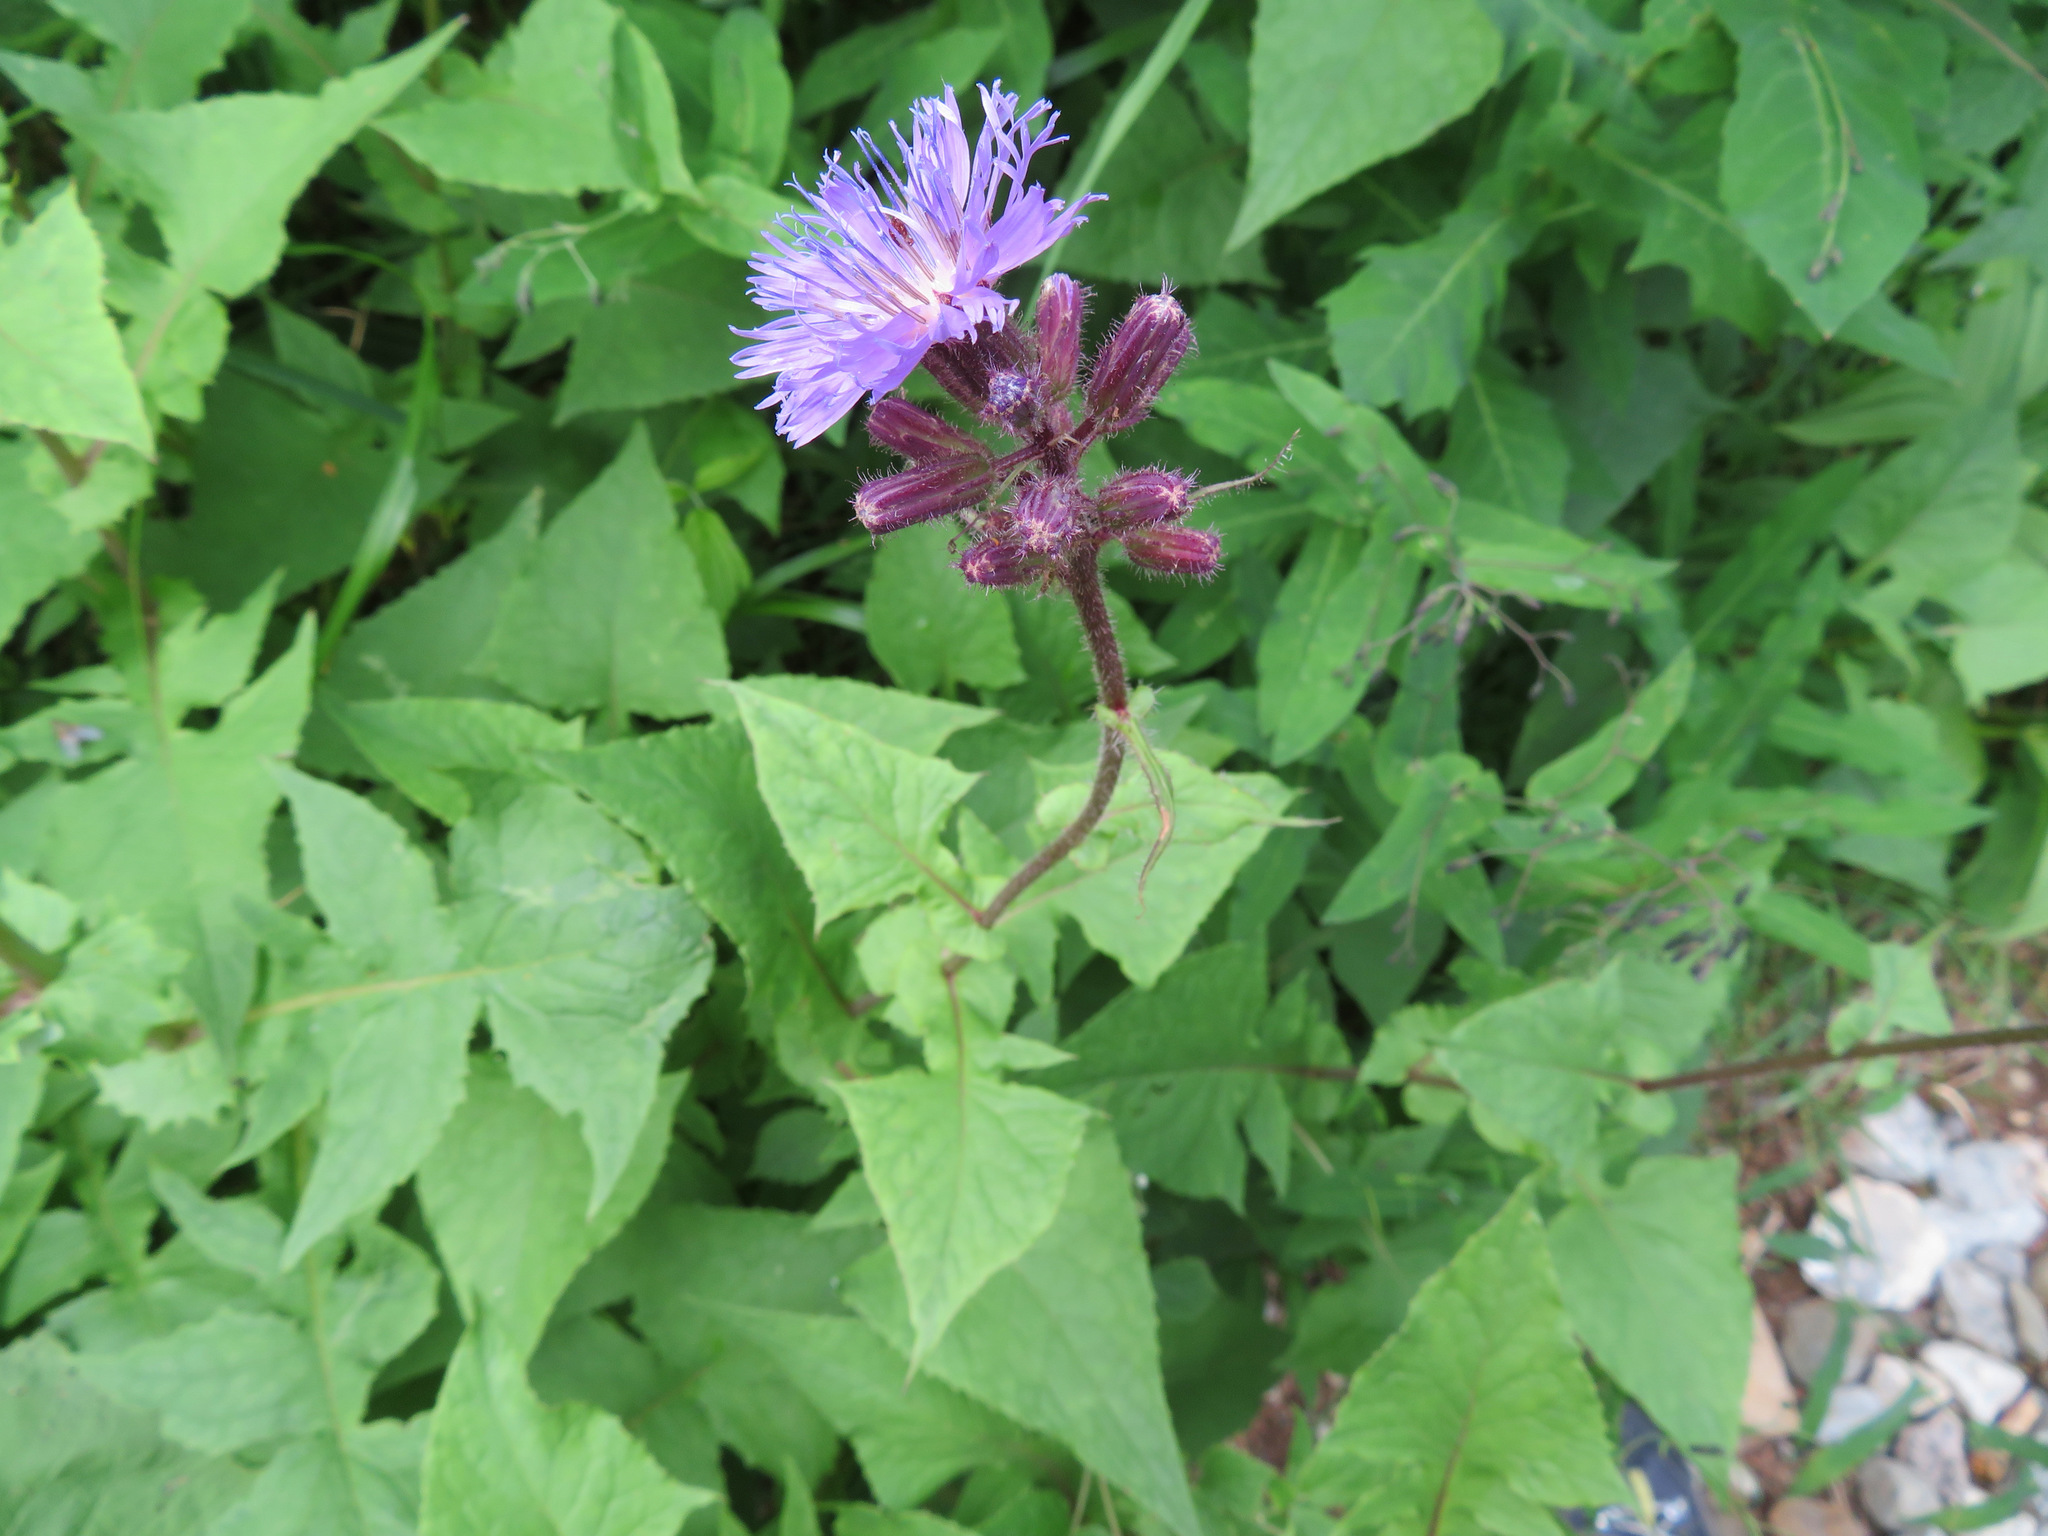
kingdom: Plantae
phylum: Tracheophyta
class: Magnoliopsida
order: Asterales
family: Asteraceae
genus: Cicerbita
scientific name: Cicerbita alpina
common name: Alpine blue-sow-thistle
